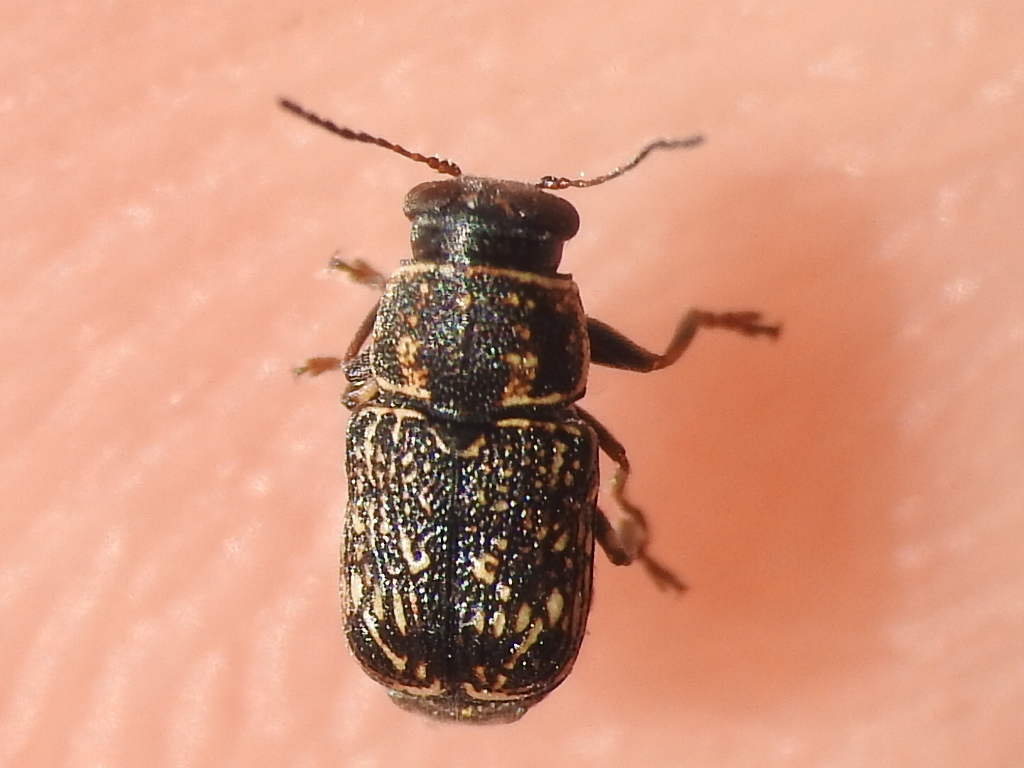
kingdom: Animalia
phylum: Arthropoda
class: Insecta
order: Coleoptera
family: Chrysomelidae
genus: Pachybrachis
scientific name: Pachybrachis impurus
